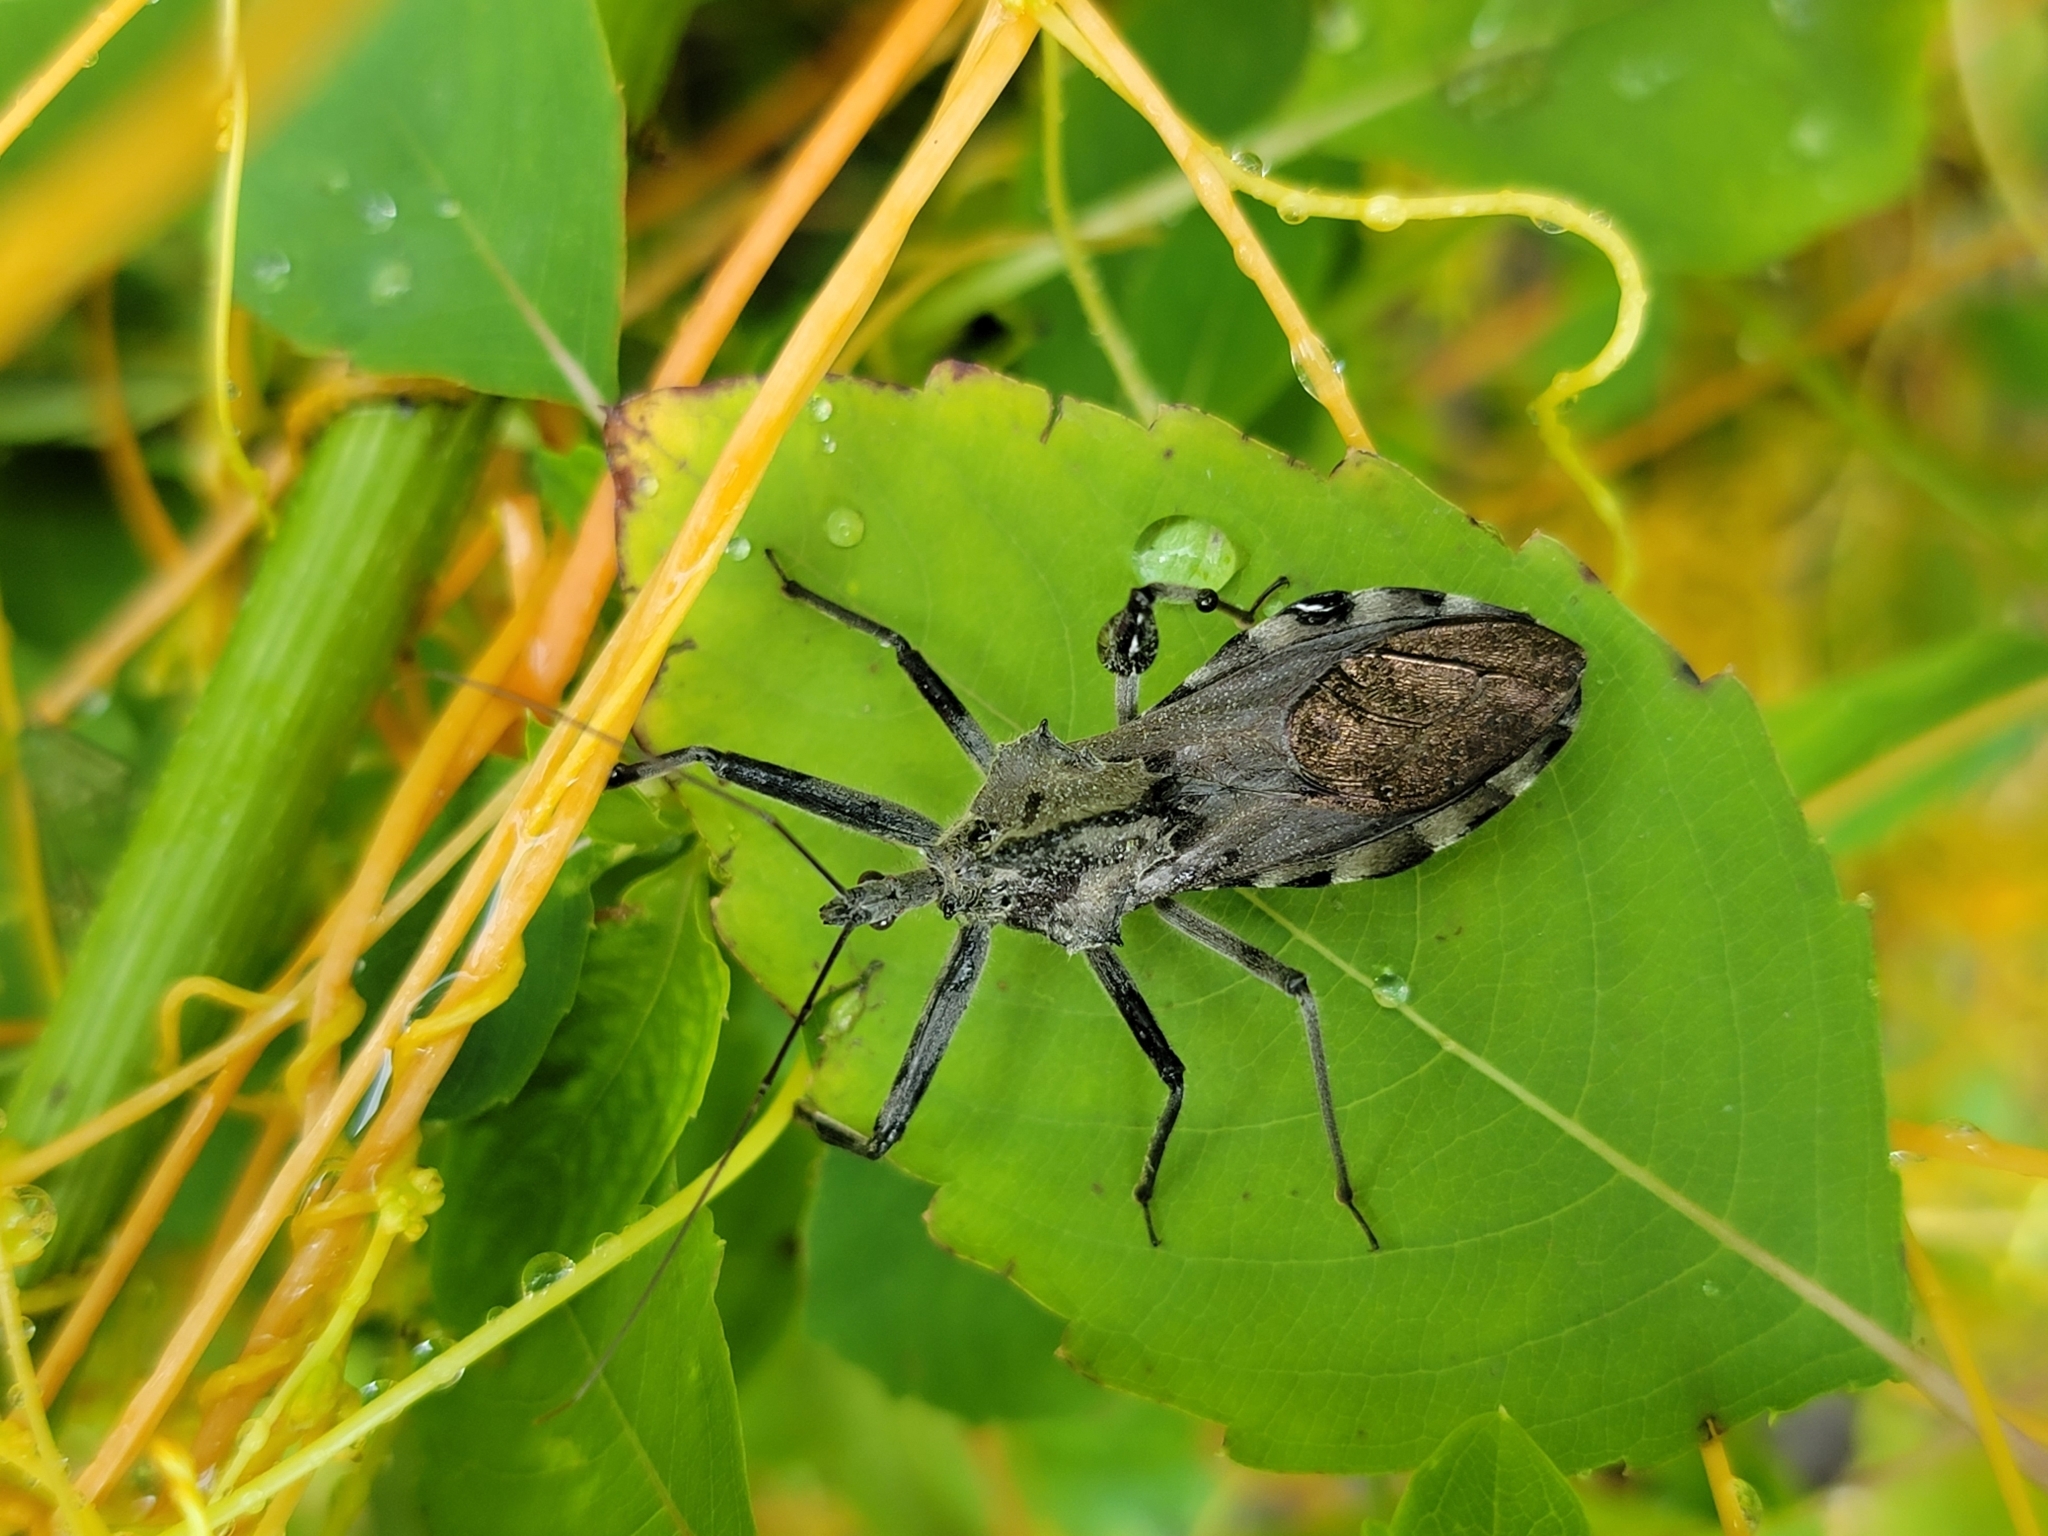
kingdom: Animalia
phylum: Arthropoda
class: Insecta
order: Hemiptera
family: Reduviidae
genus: Arilus
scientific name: Arilus cristatus
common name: North american wheel bug
